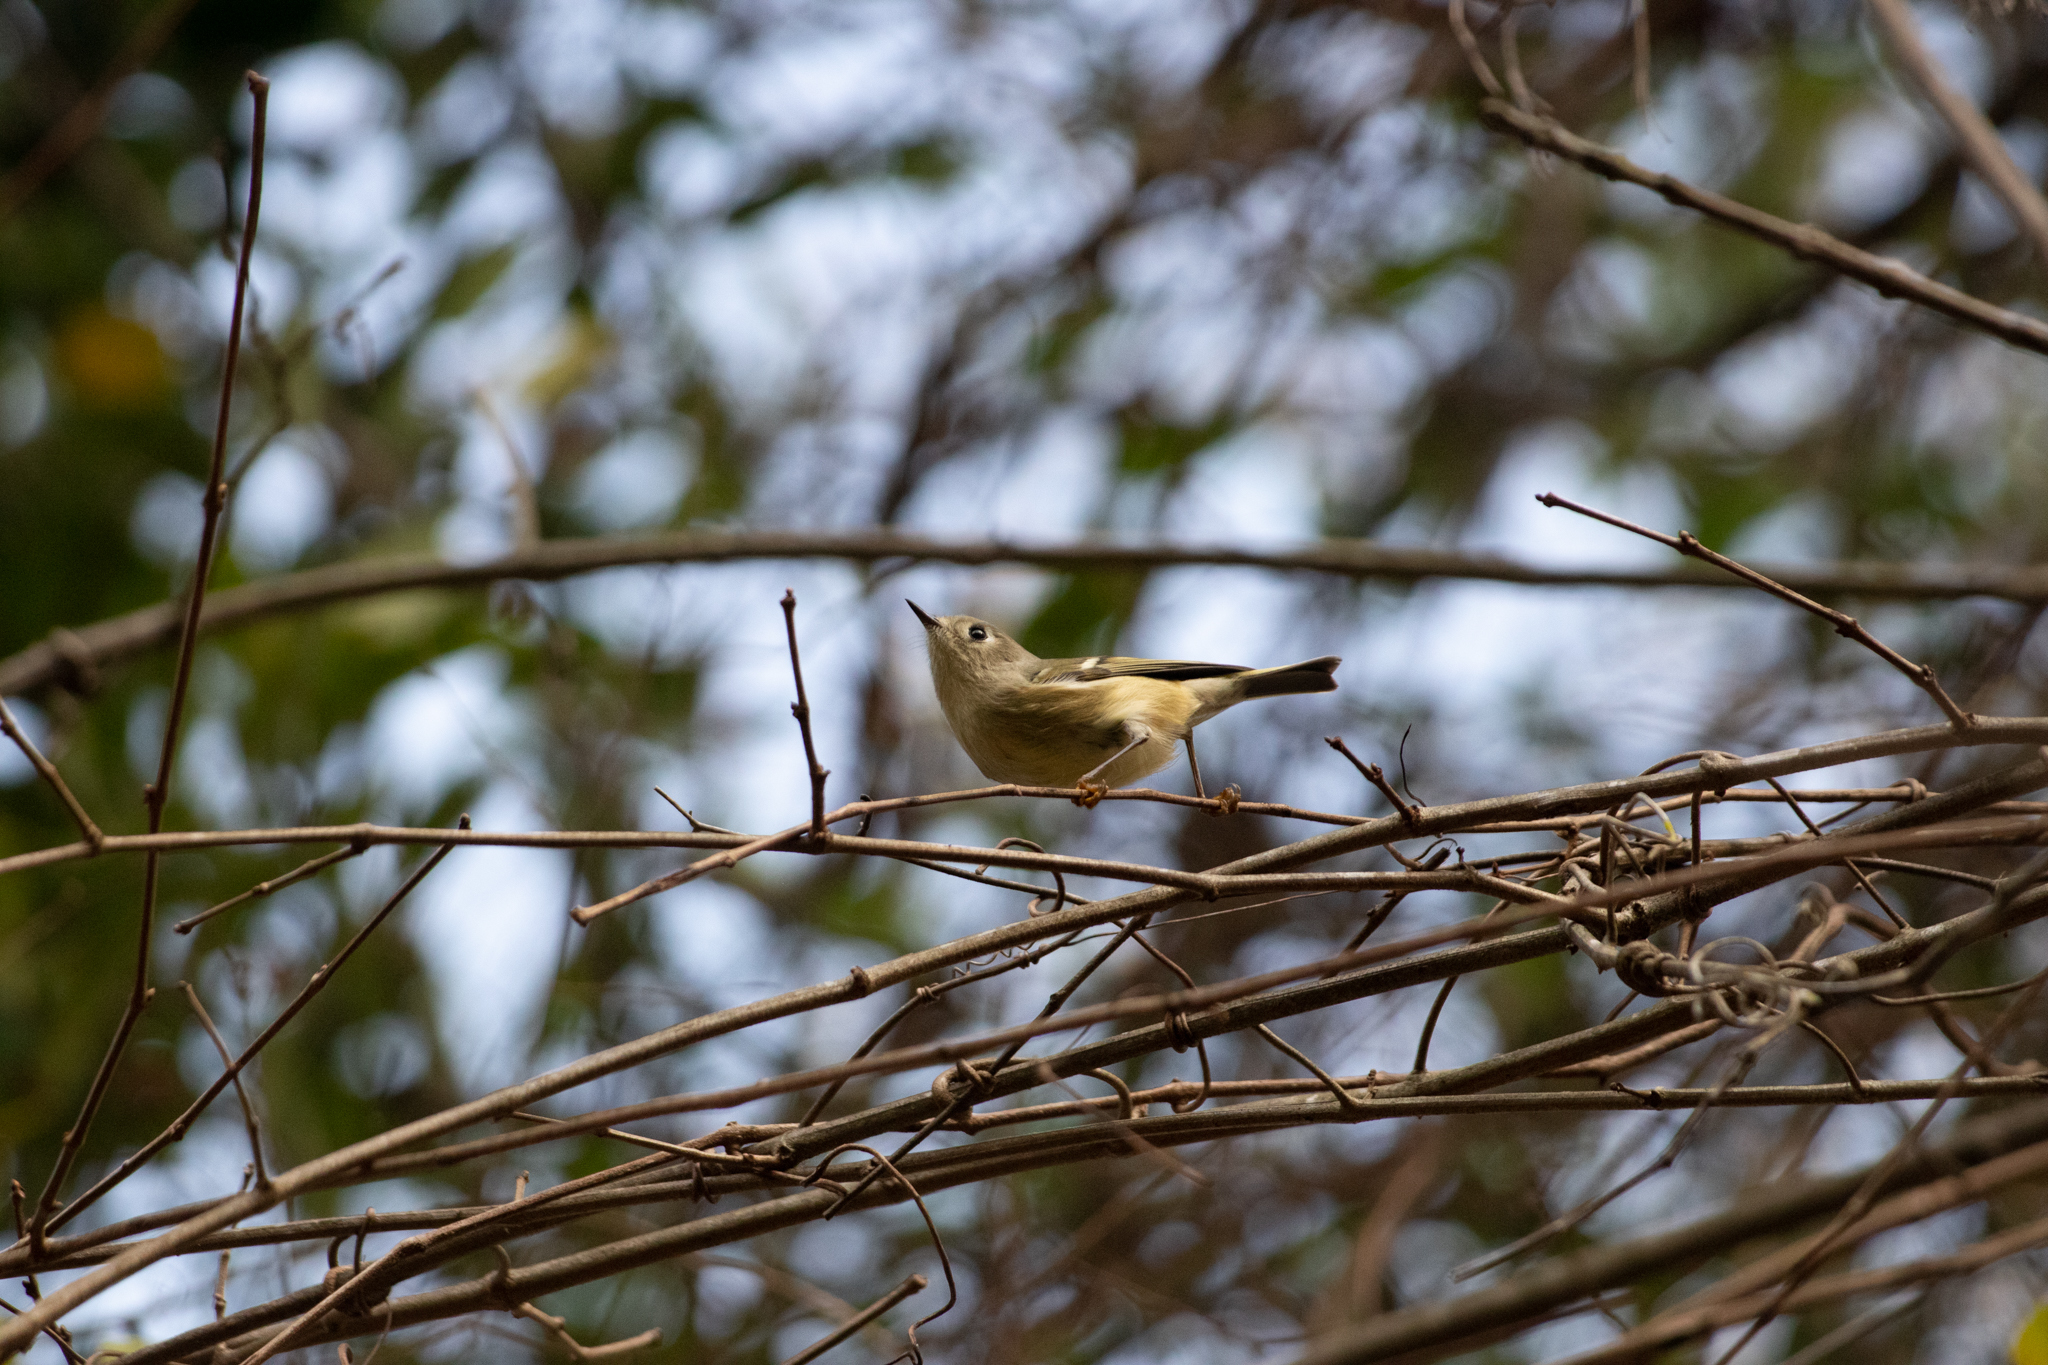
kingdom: Animalia
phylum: Chordata
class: Aves
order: Passeriformes
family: Regulidae
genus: Regulus
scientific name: Regulus calendula
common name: Ruby-crowned kinglet
